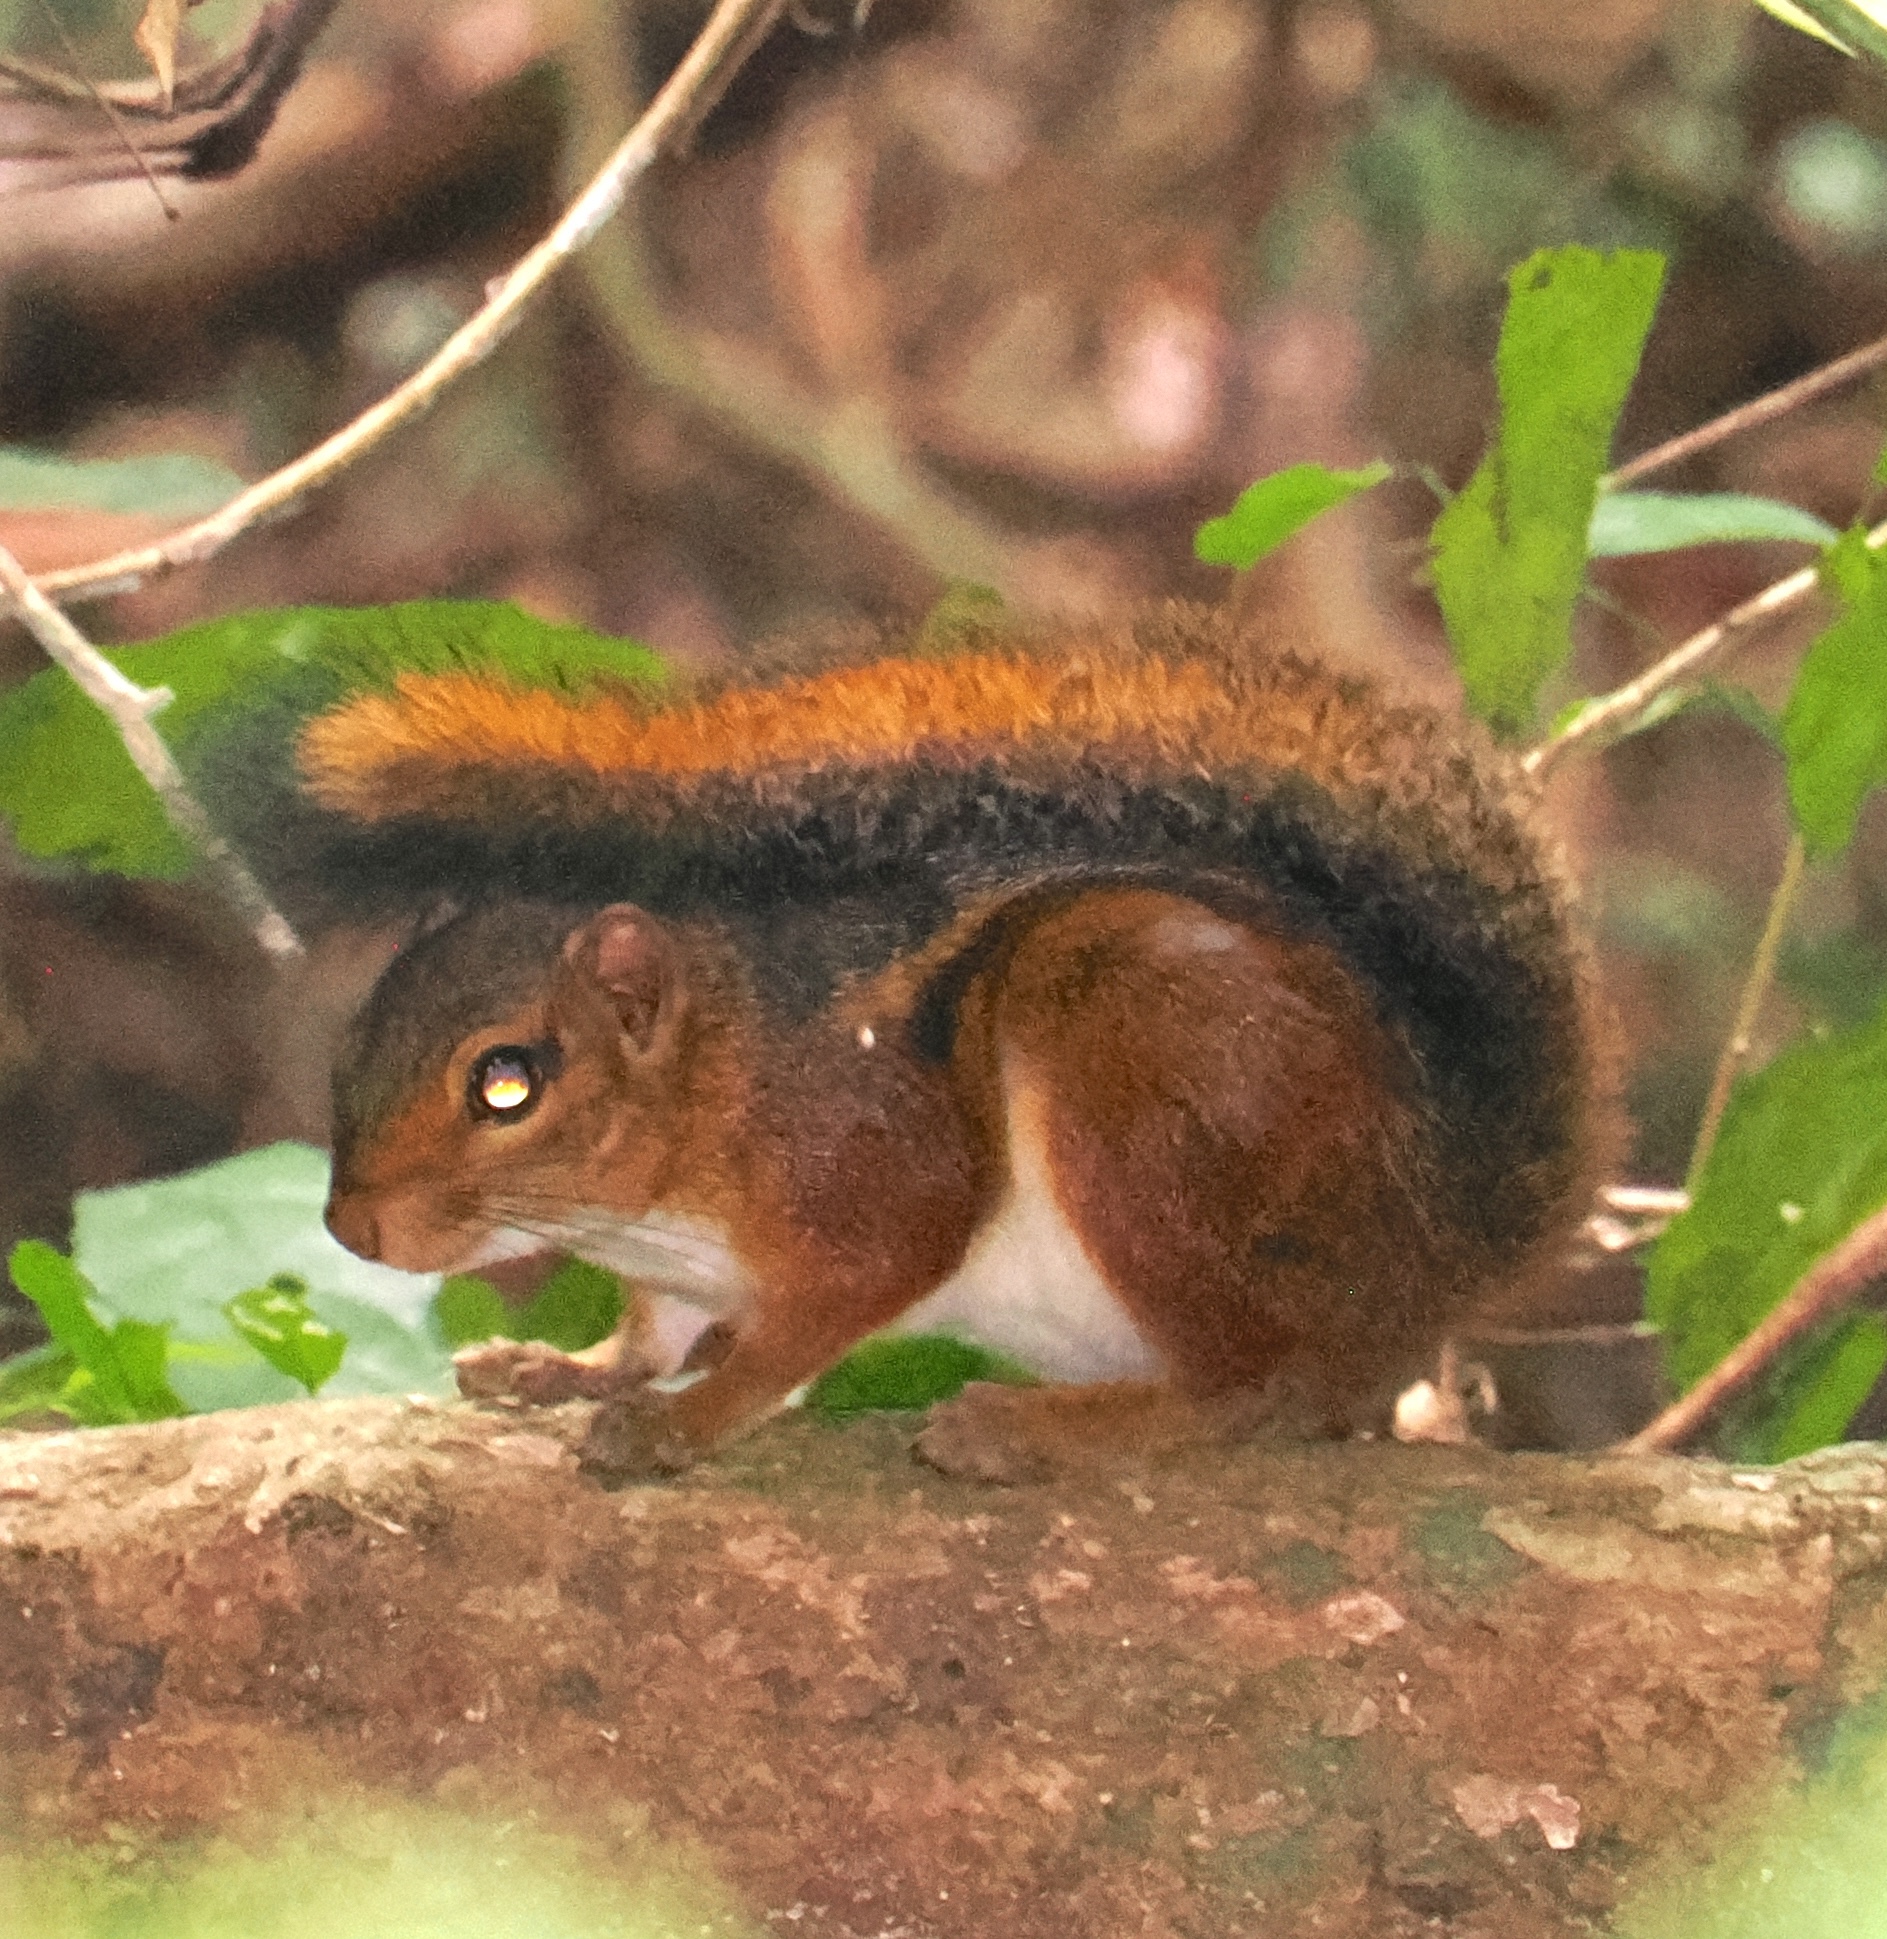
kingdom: Animalia
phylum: Chordata
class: Mammalia
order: Rodentia
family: Sciuridae
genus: Funisciurus
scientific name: Funisciurus pyrropus
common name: Fire-footed rope squirrel
